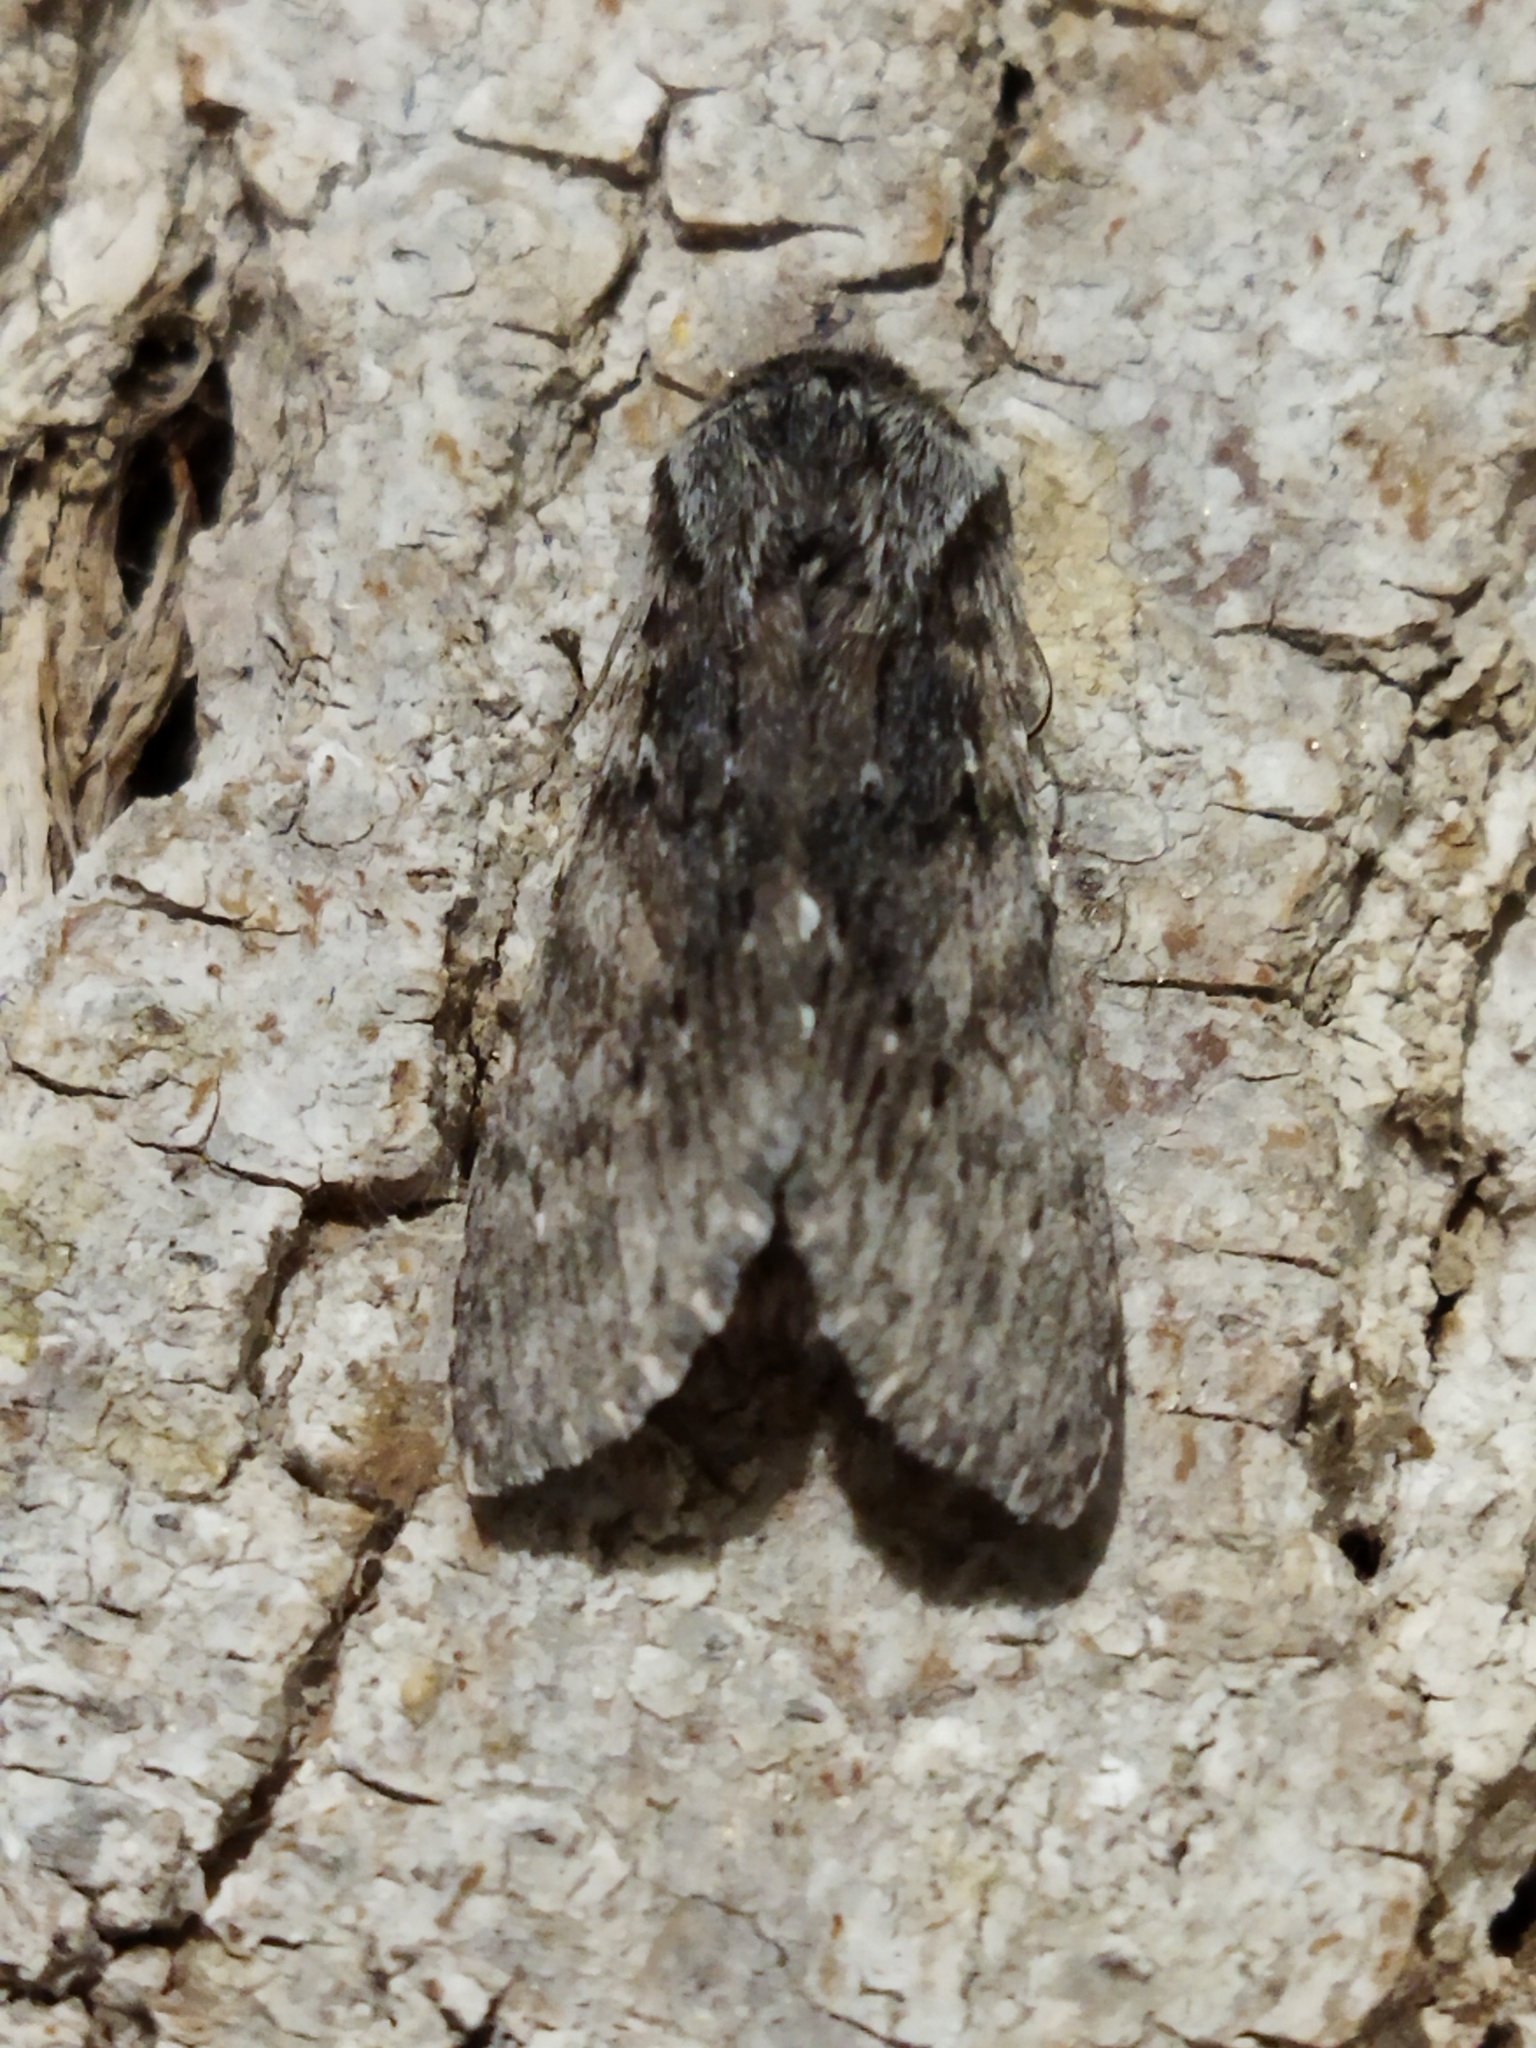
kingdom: Animalia
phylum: Arthropoda
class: Insecta
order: Lepidoptera
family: Notodontidae
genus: Dicranura
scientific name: Dicranura ulmi
